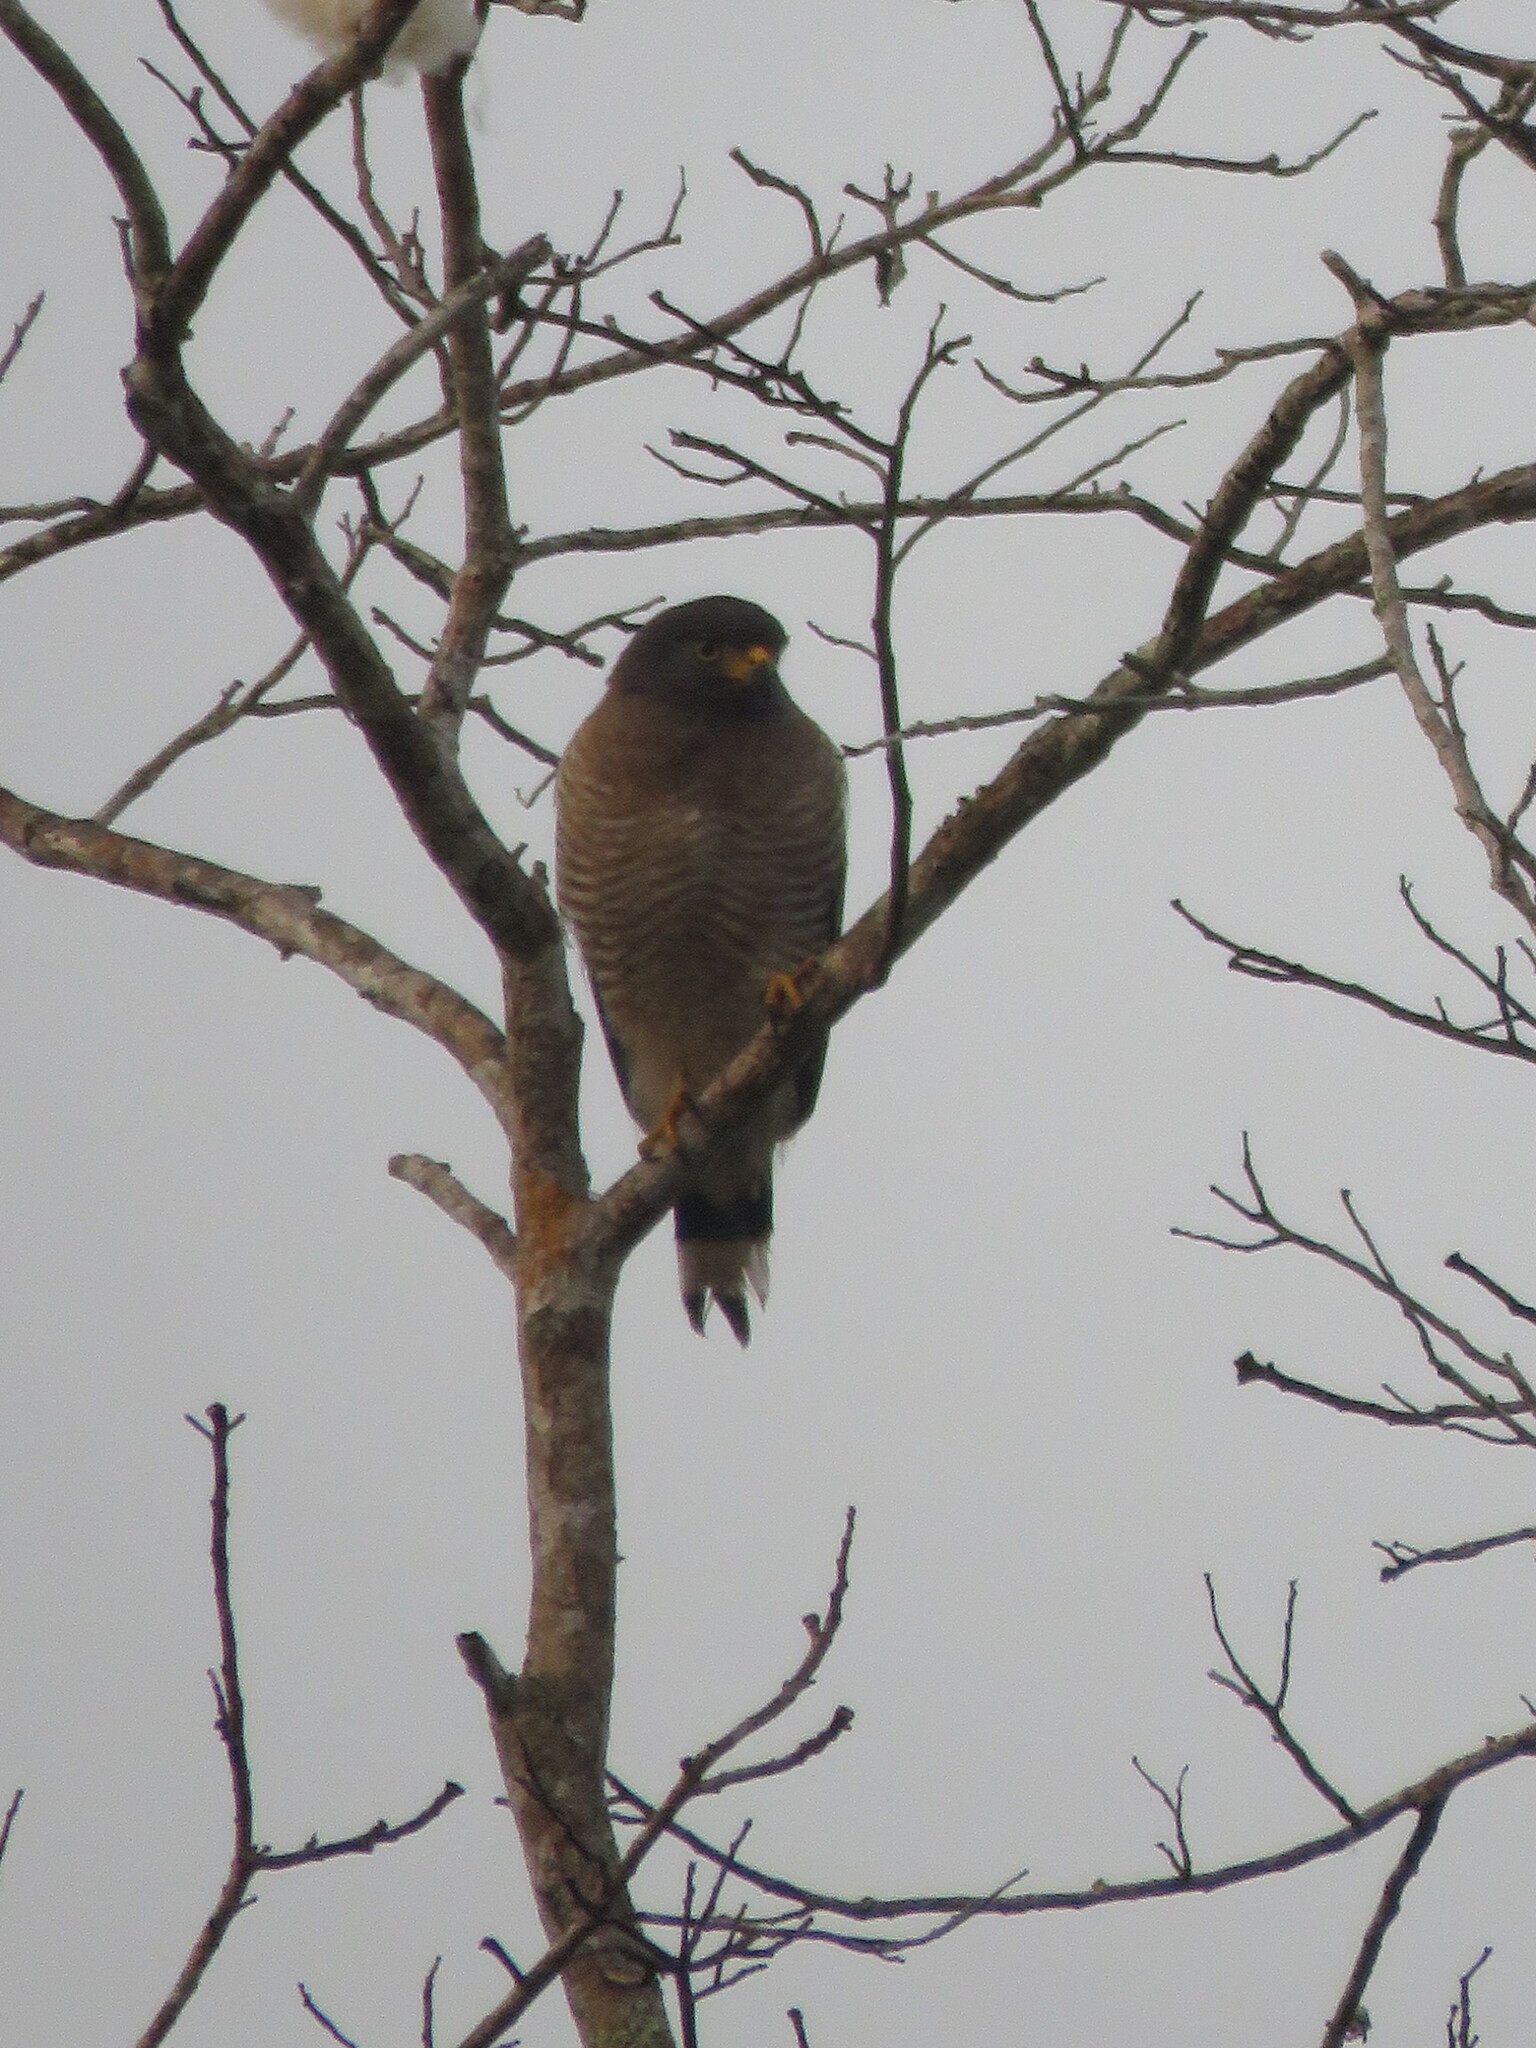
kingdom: Animalia
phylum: Chordata
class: Aves
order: Accipitriformes
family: Accipitridae
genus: Rupornis
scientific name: Rupornis magnirostris
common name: Roadside hawk
